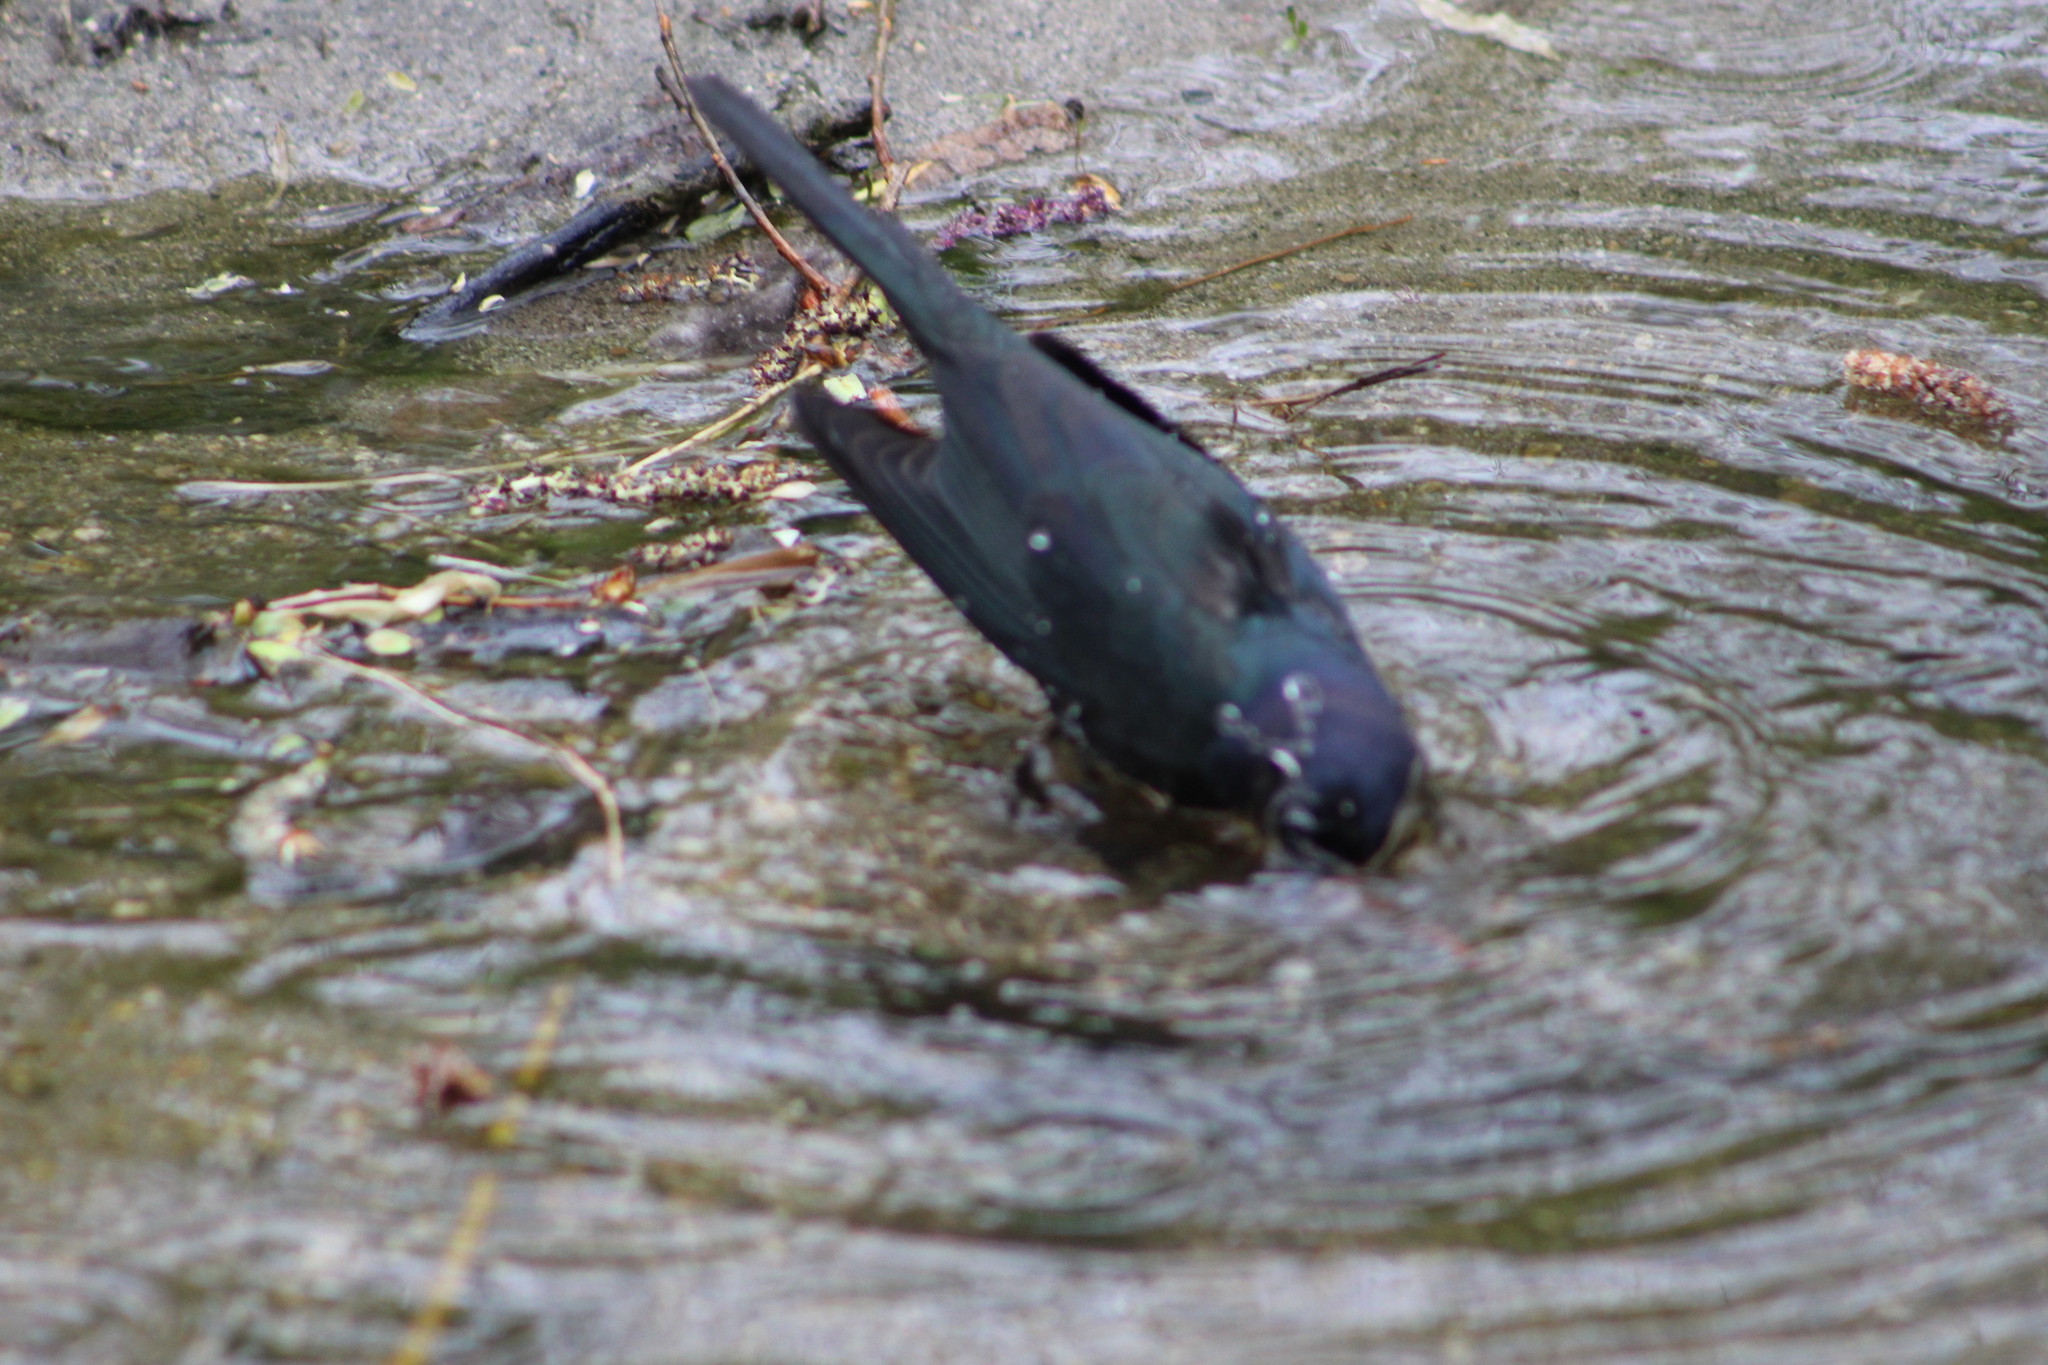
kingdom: Animalia
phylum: Chordata
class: Aves
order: Passeriformes
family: Icteridae
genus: Euphagus
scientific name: Euphagus cyanocephalus
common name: Brewer's blackbird
